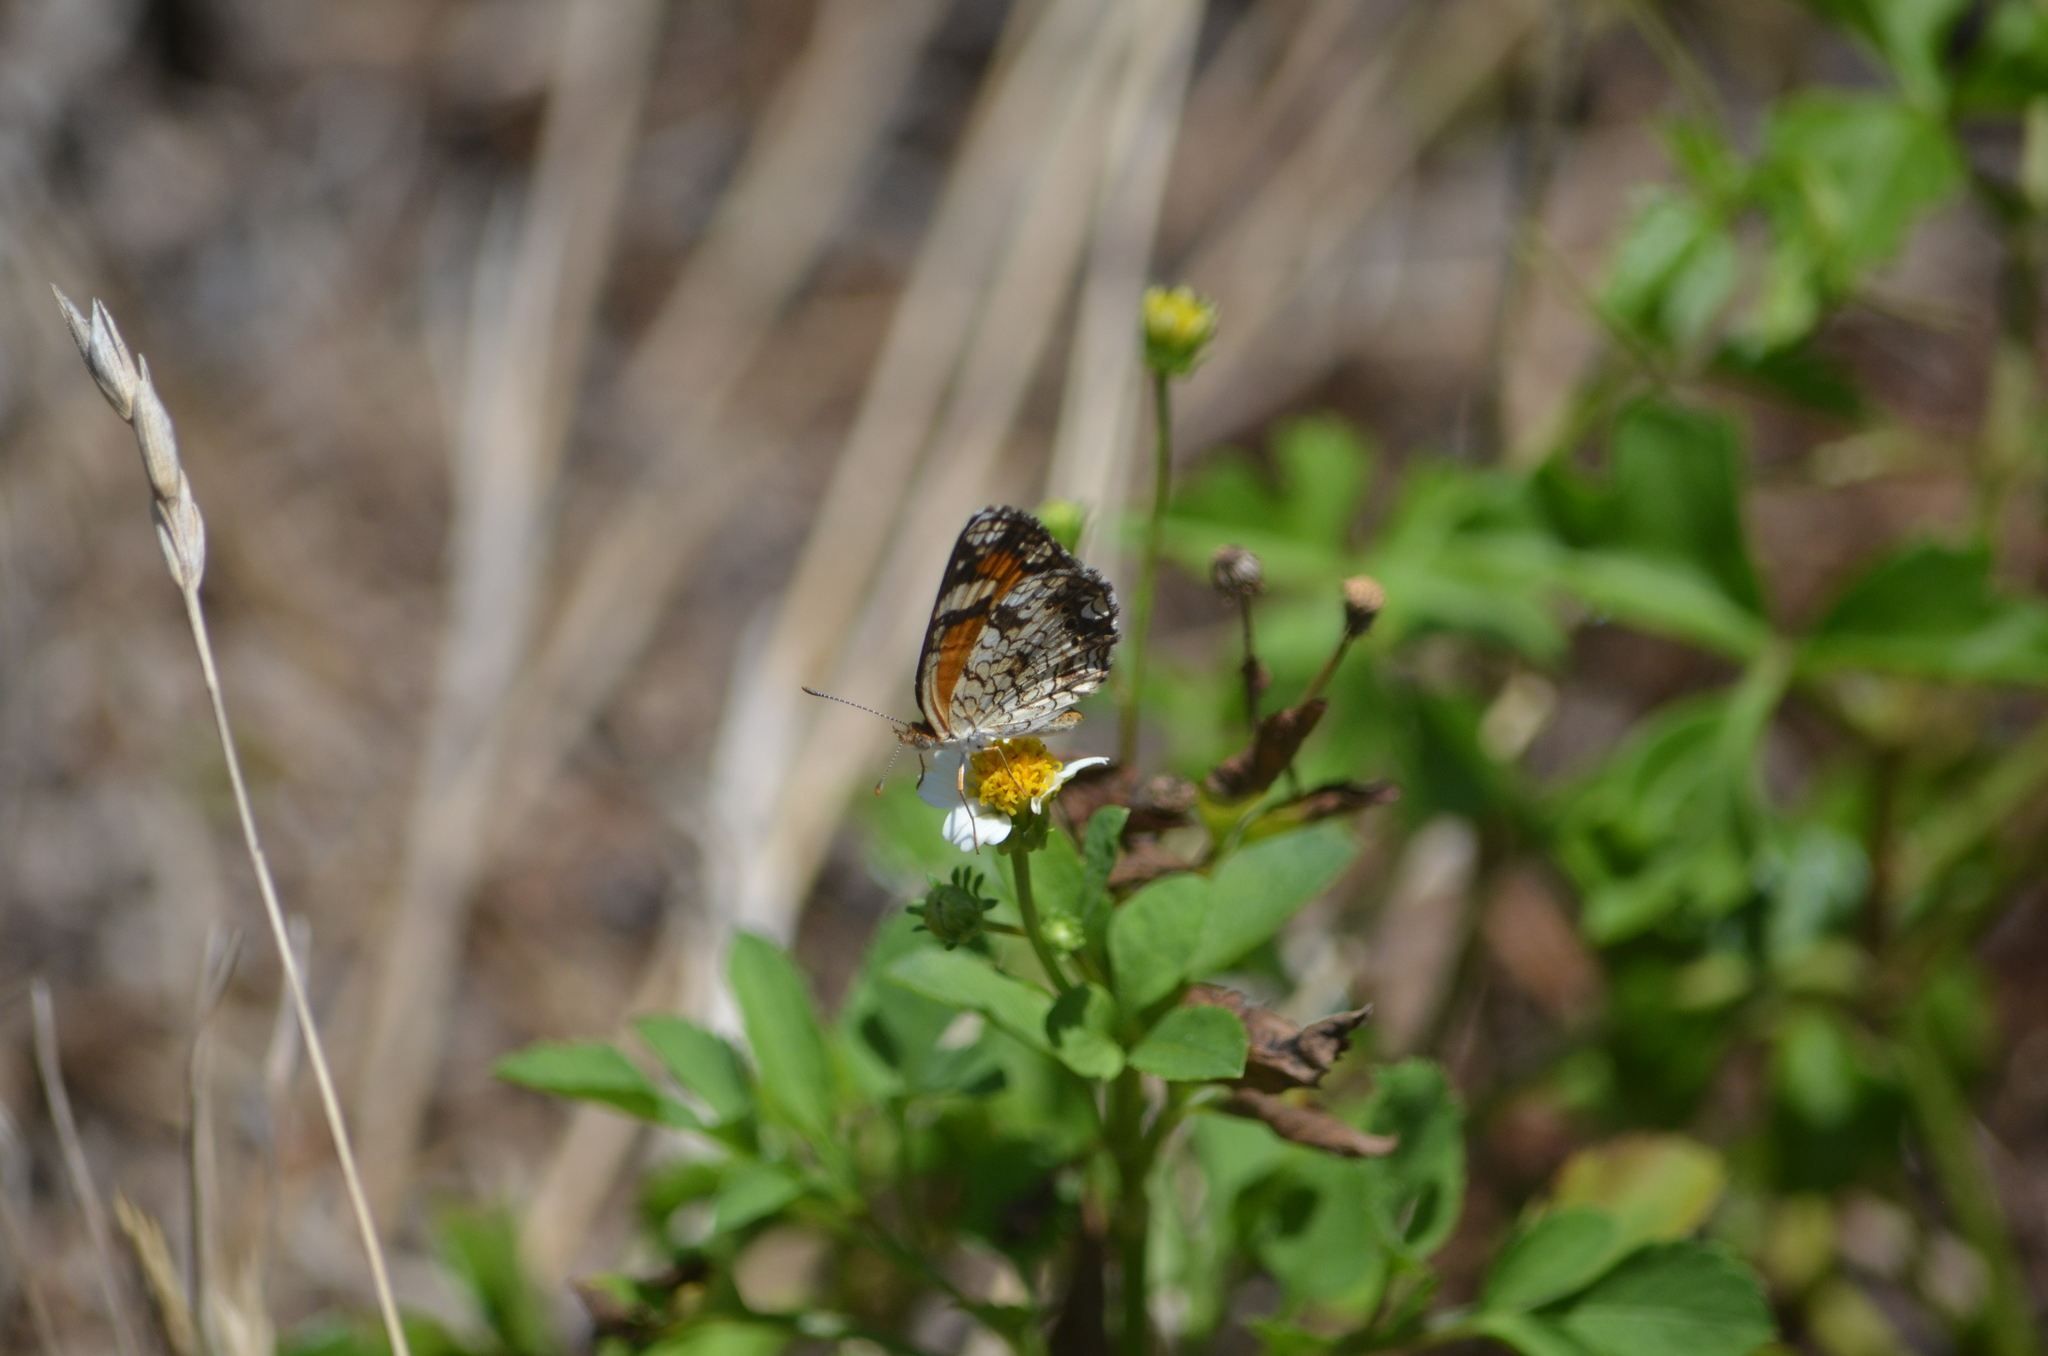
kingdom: Animalia
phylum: Arthropoda
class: Insecta
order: Lepidoptera
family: Nymphalidae
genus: Phyciodes
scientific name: Phyciodes phaon
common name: Phaon crescent
